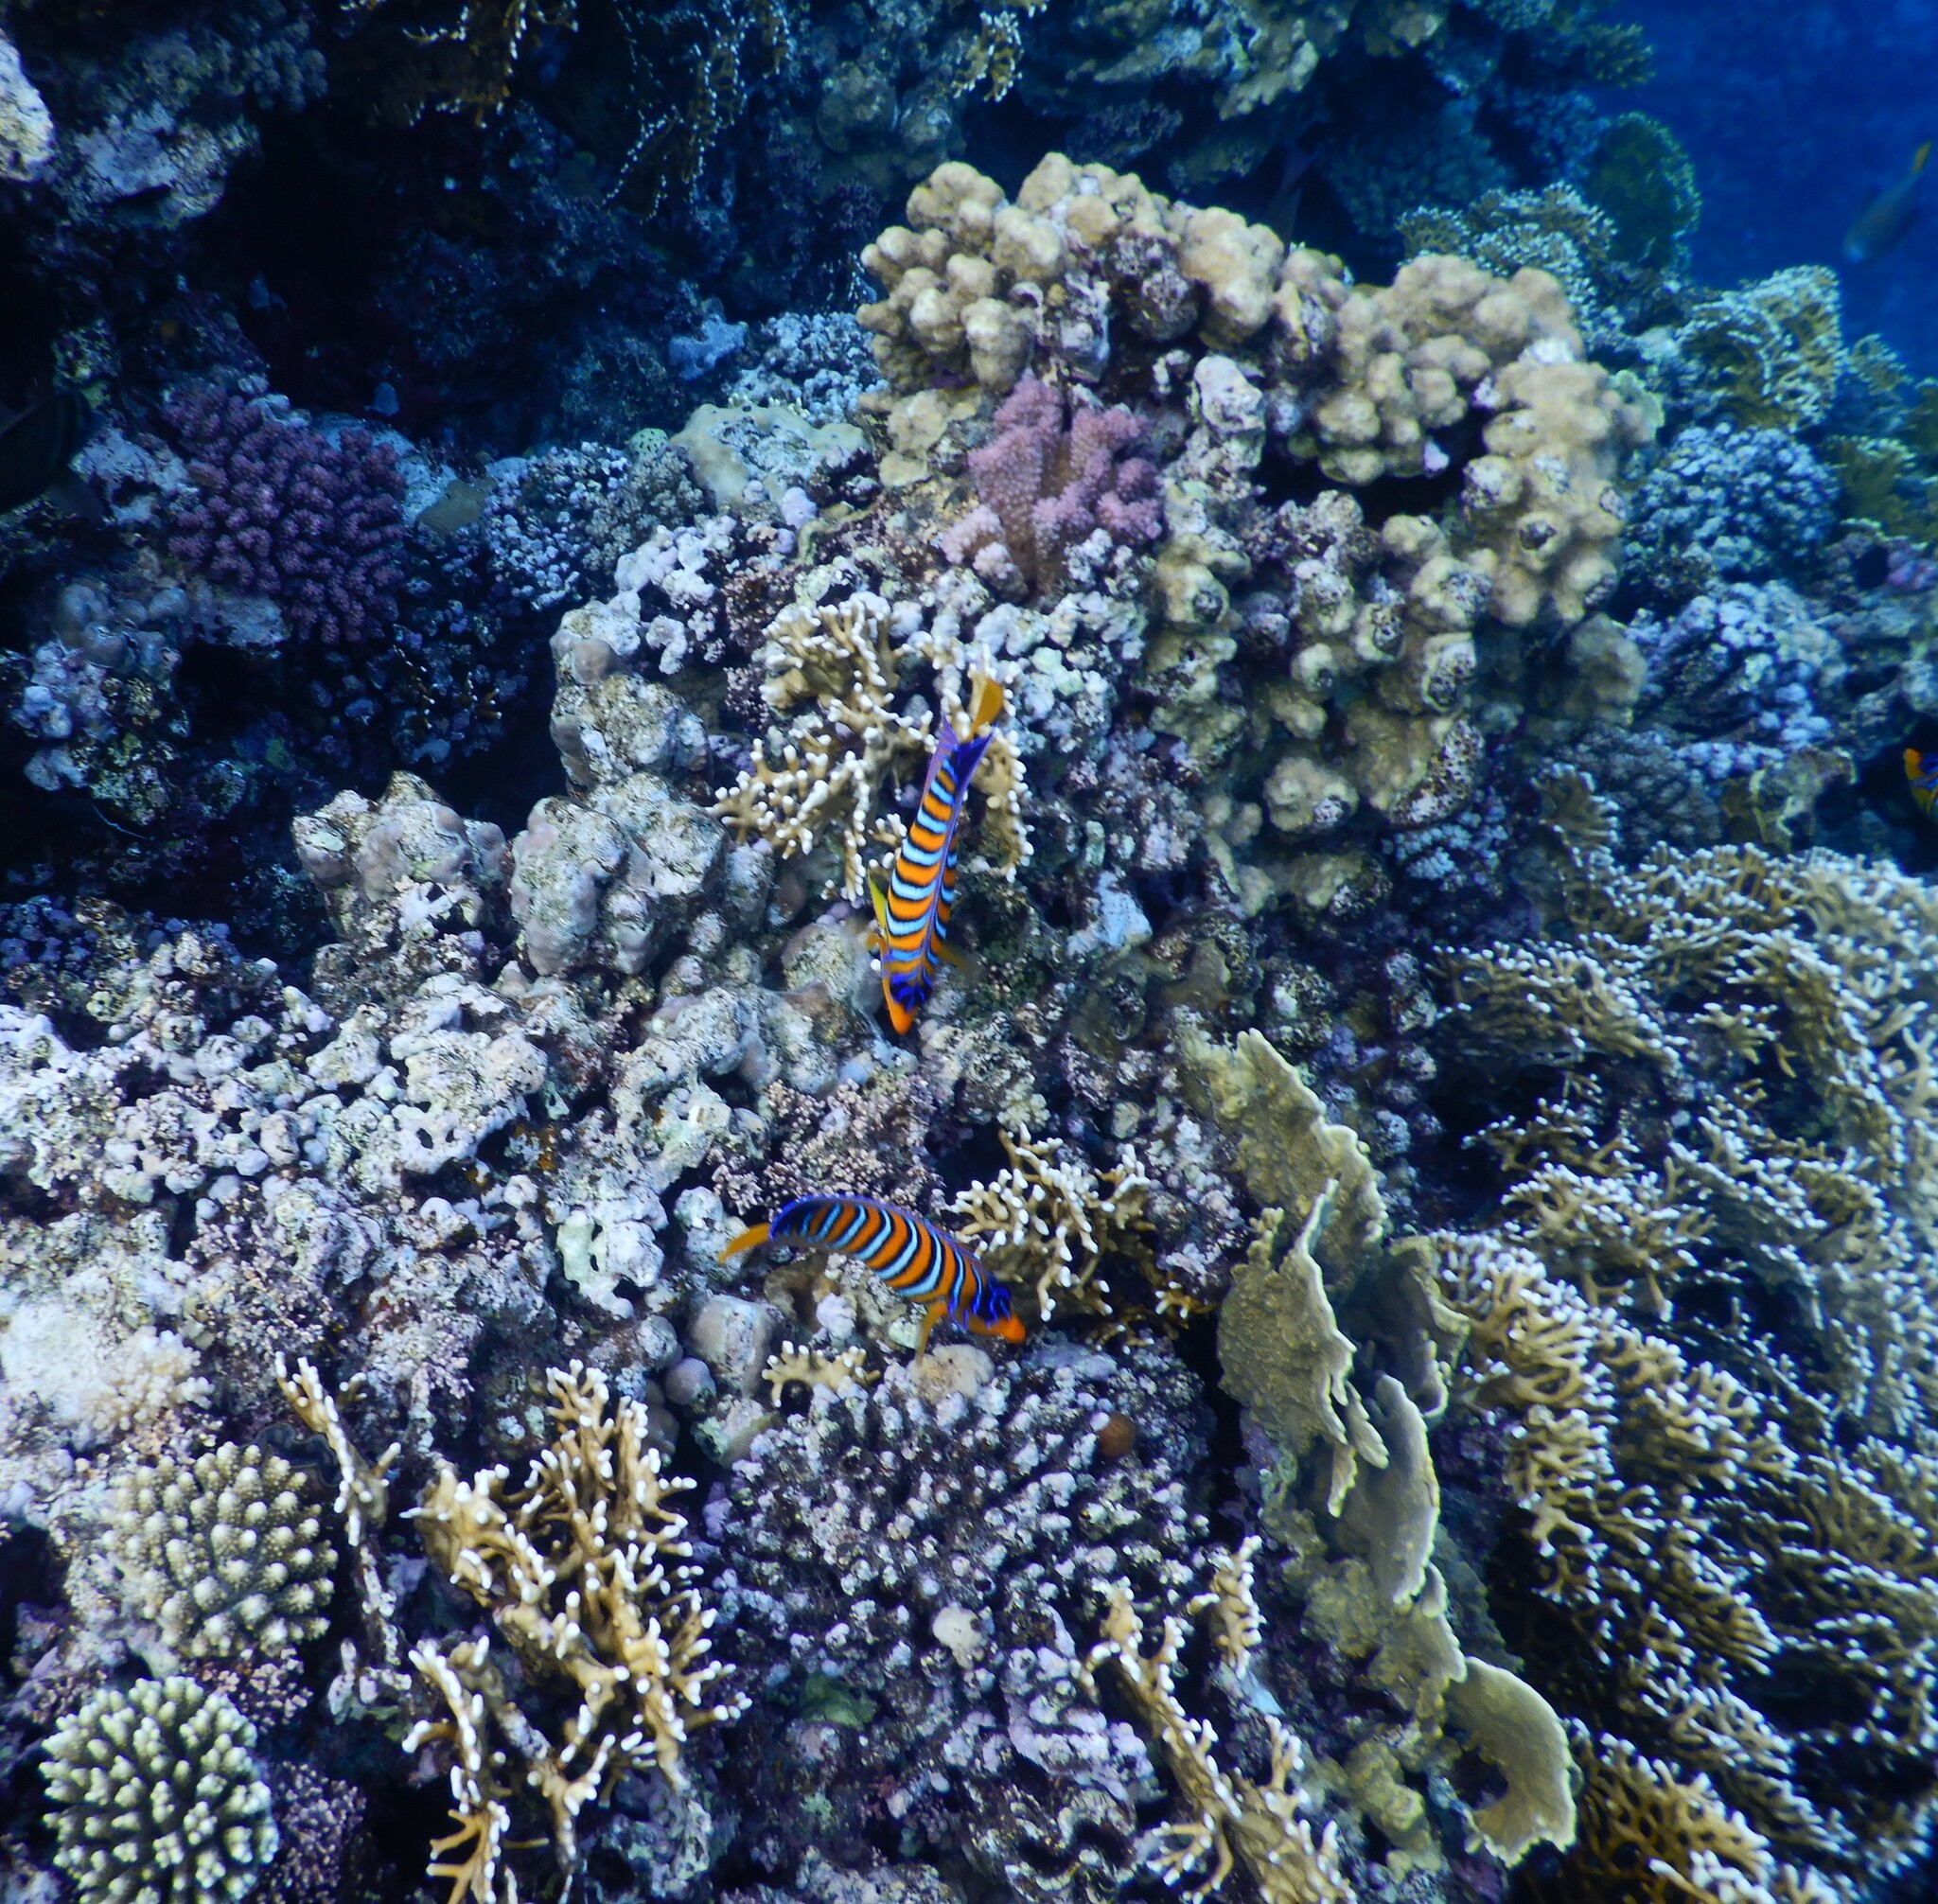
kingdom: Animalia
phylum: Chordata
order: Perciformes
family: Pomacanthidae
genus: Pygoplites
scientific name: Pygoplites diacanthus
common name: Regal angelfish
